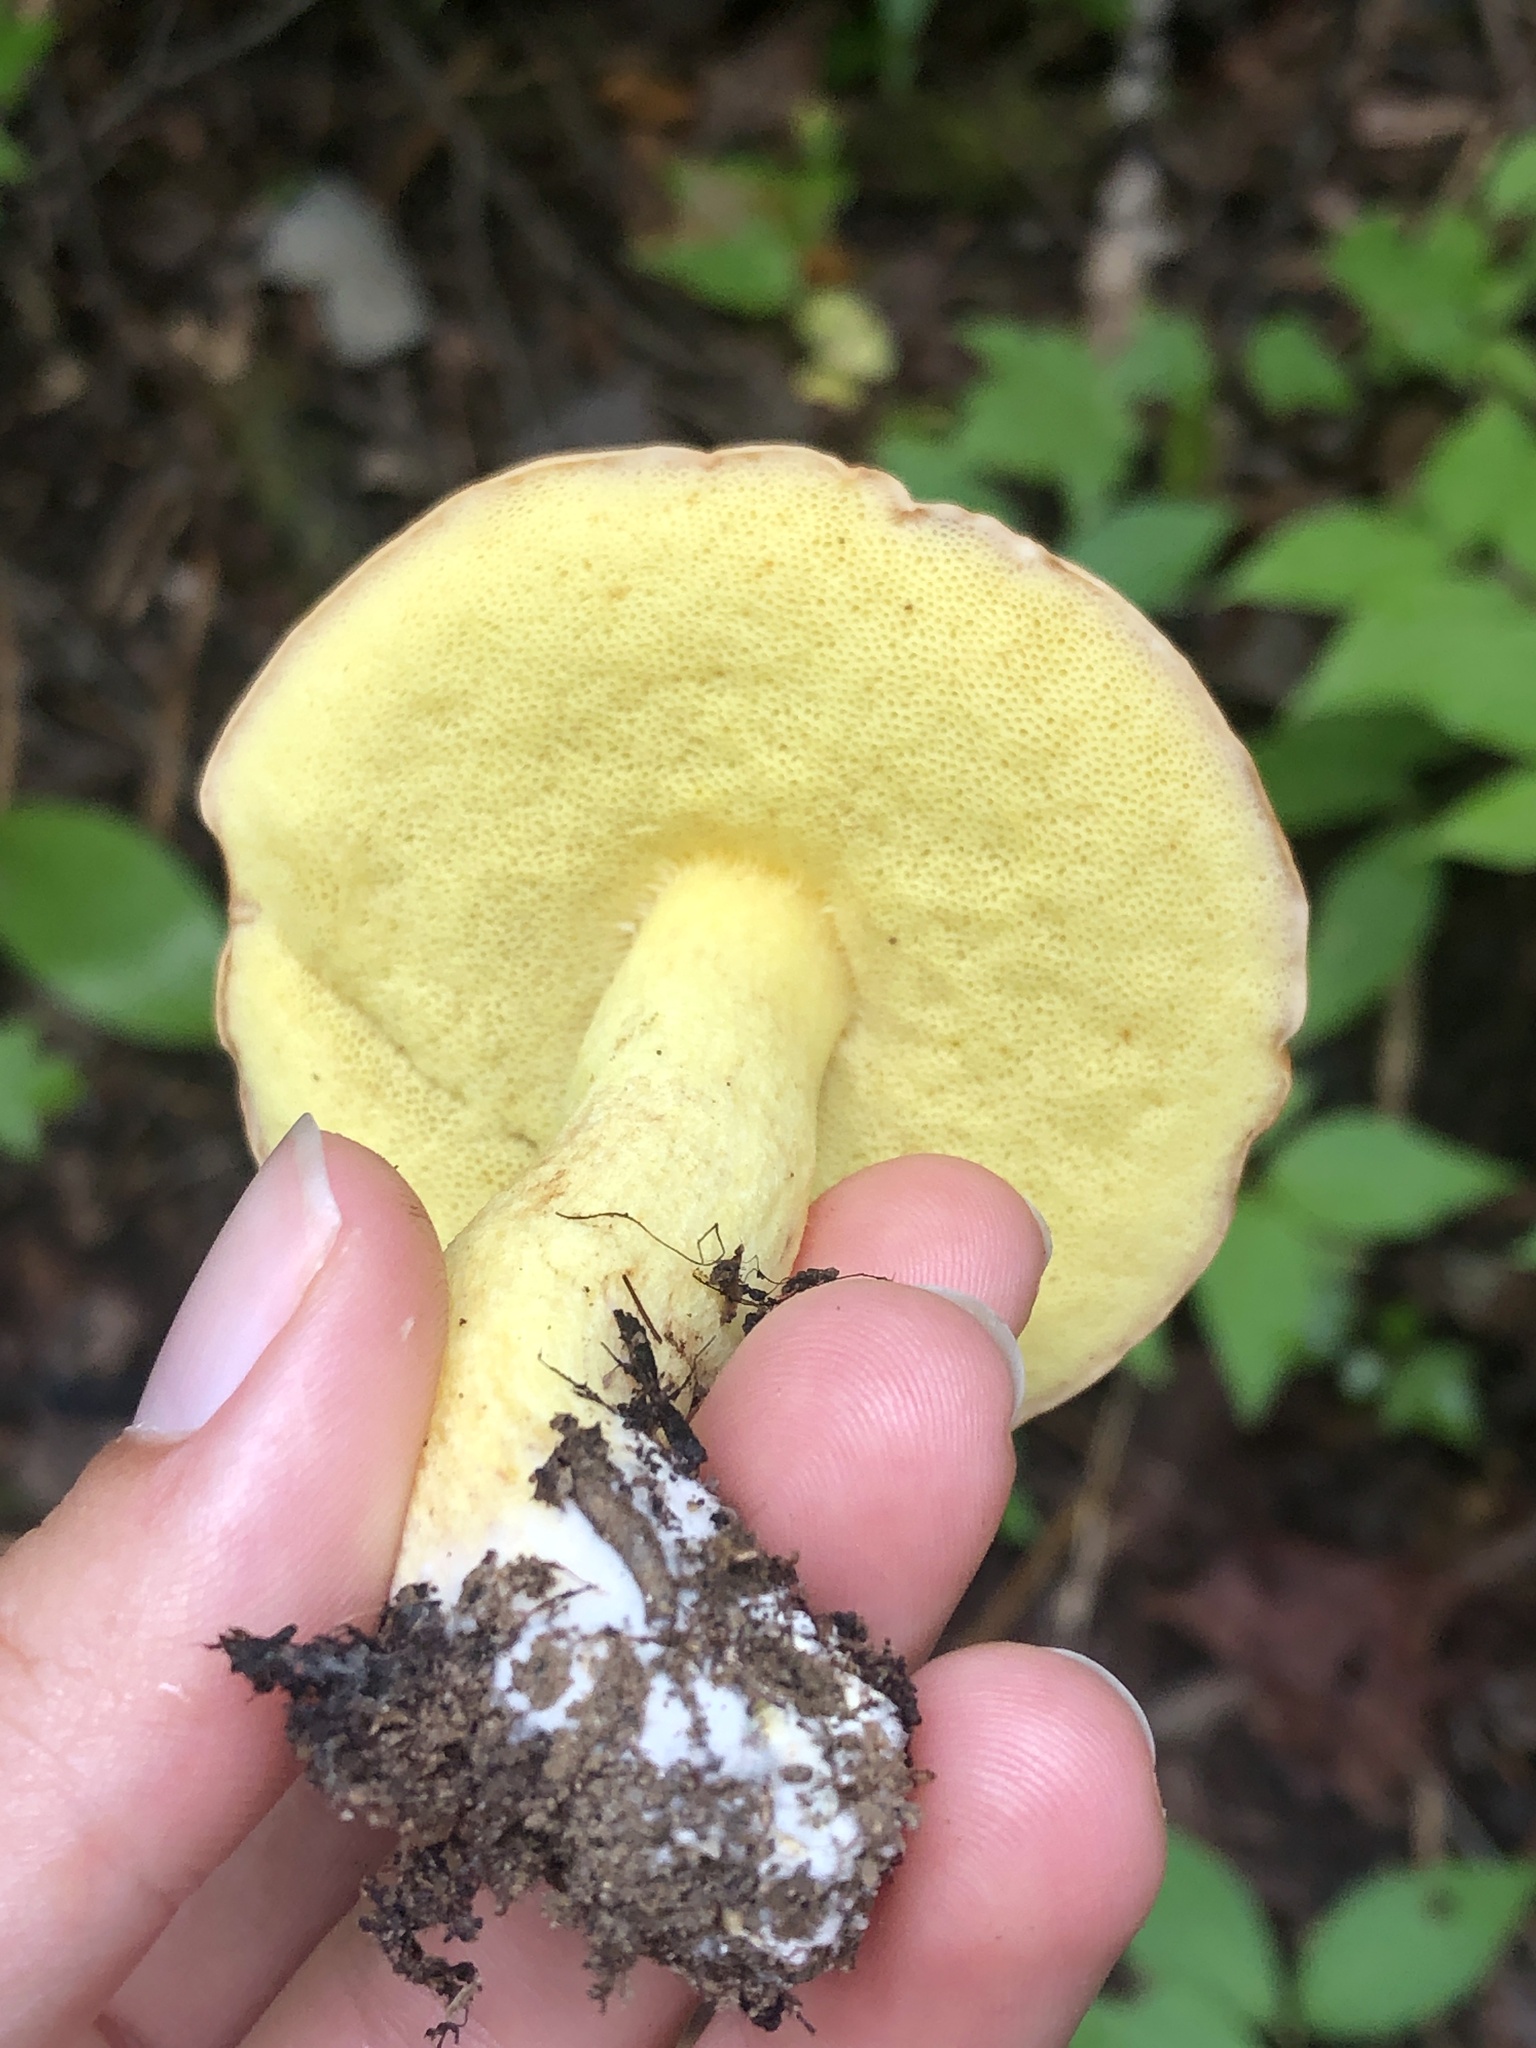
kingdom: Fungi
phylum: Basidiomycota
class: Agaricomycetes
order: Boletales
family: Boletaceae
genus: Hemileccinum
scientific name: Hemileccinum subglabripes
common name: Smoothish-stemmed bolete
